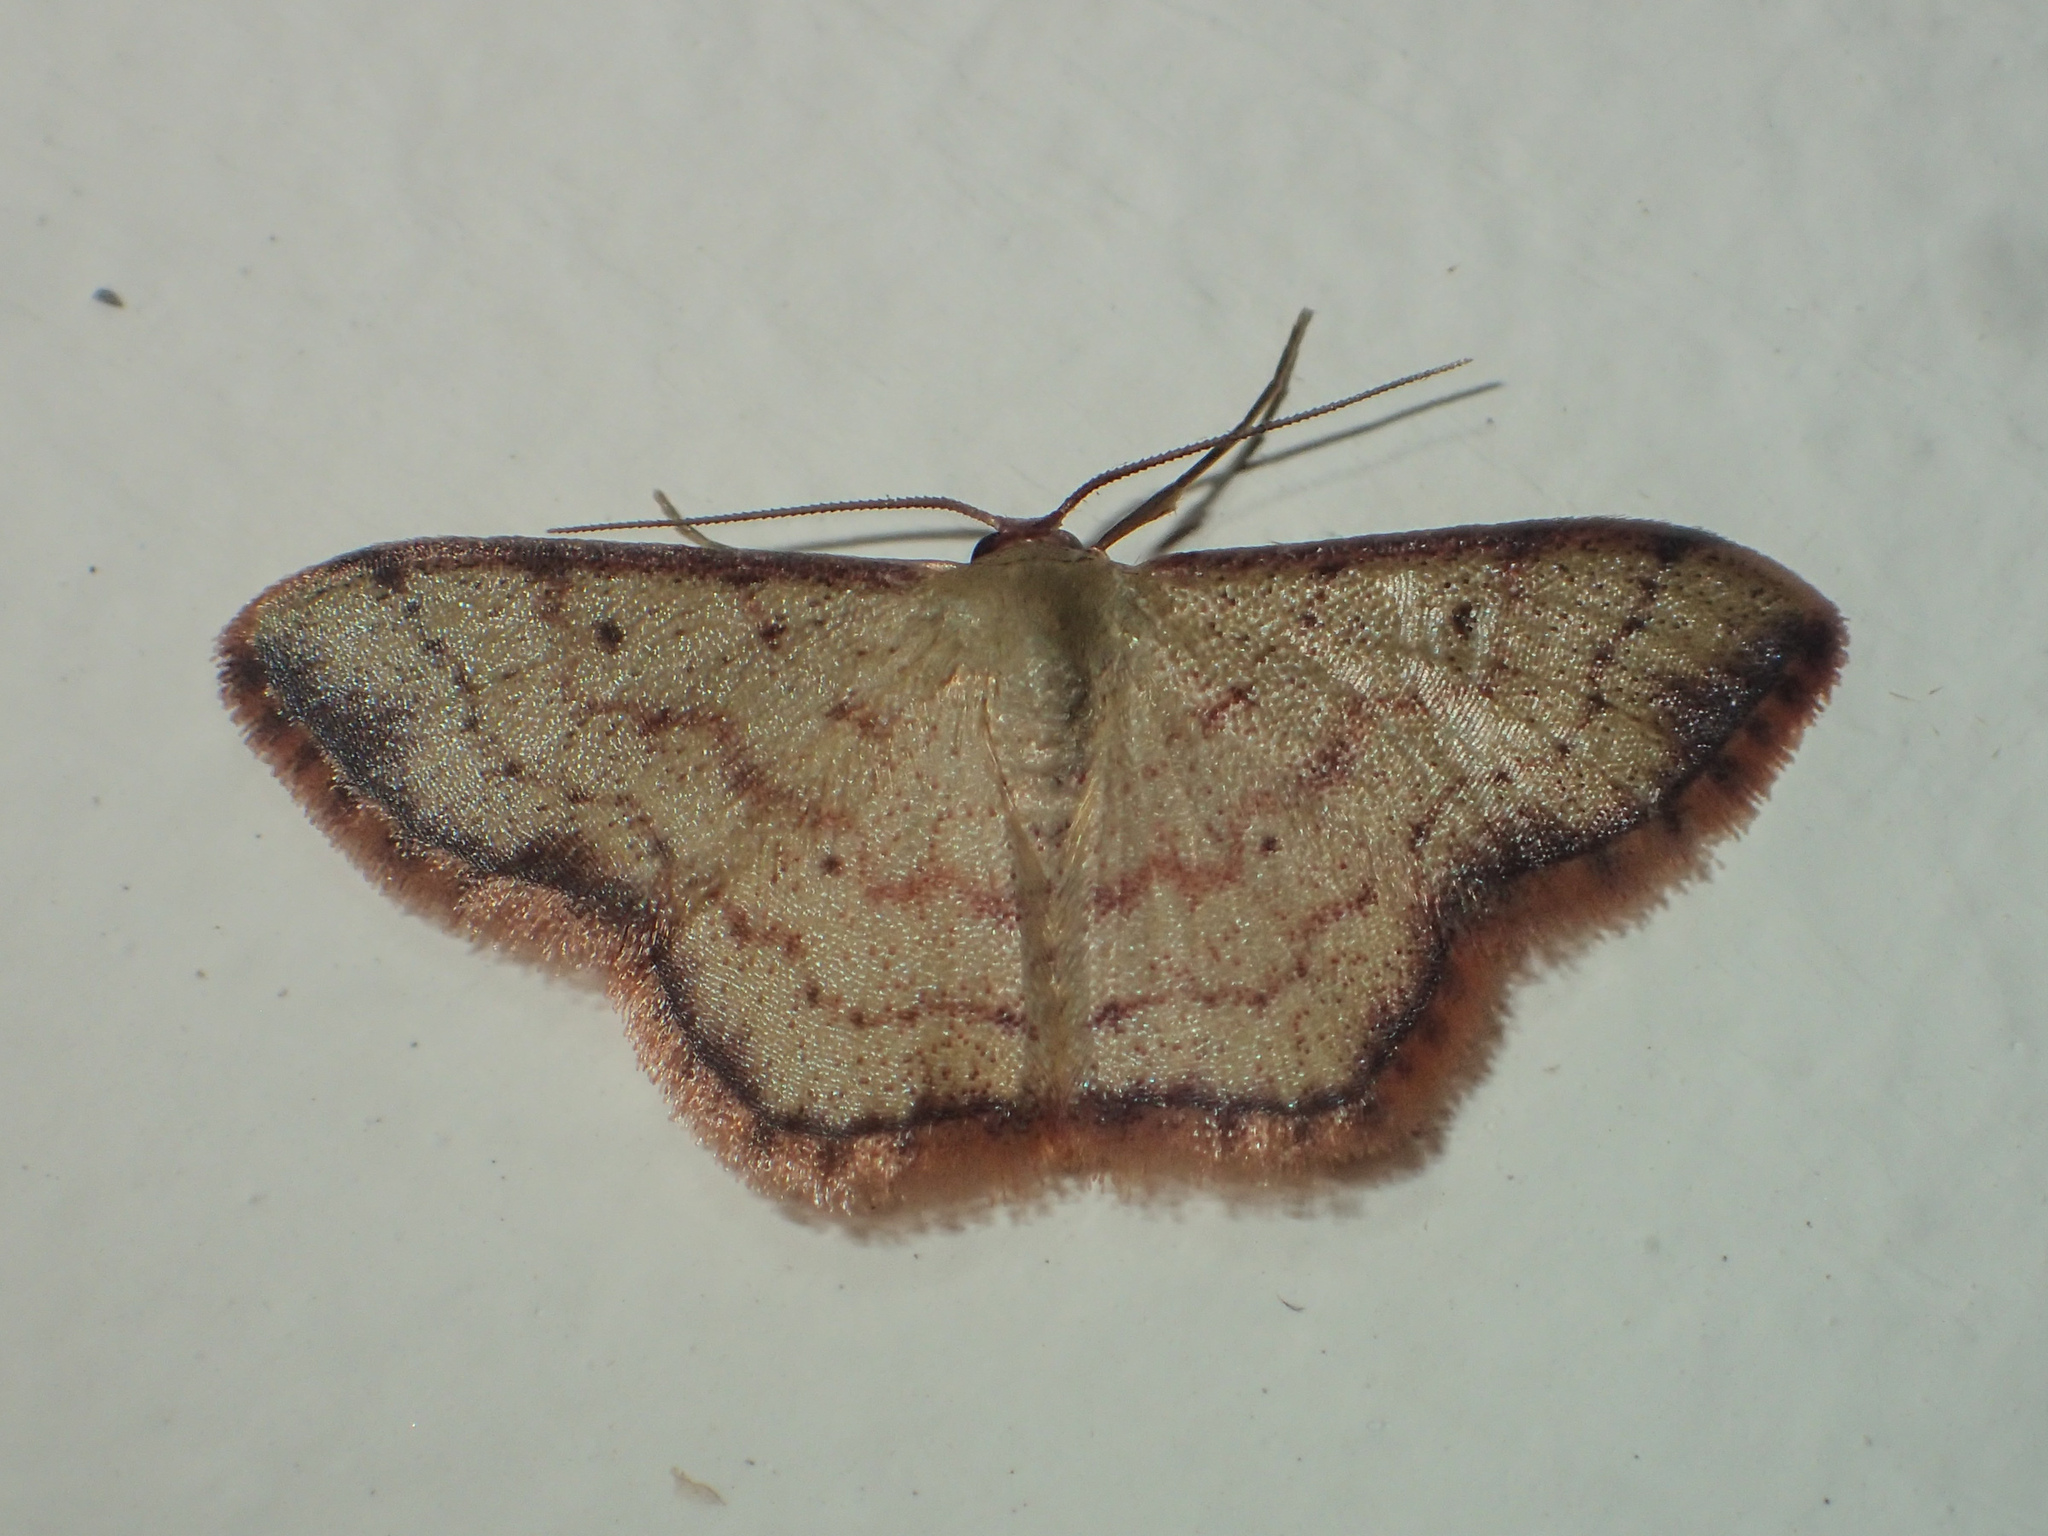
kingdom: Animalia
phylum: Arthropoda
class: Insecta
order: Lepidoptera
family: Geometridae
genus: Idaea
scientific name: Idaea craspedota
